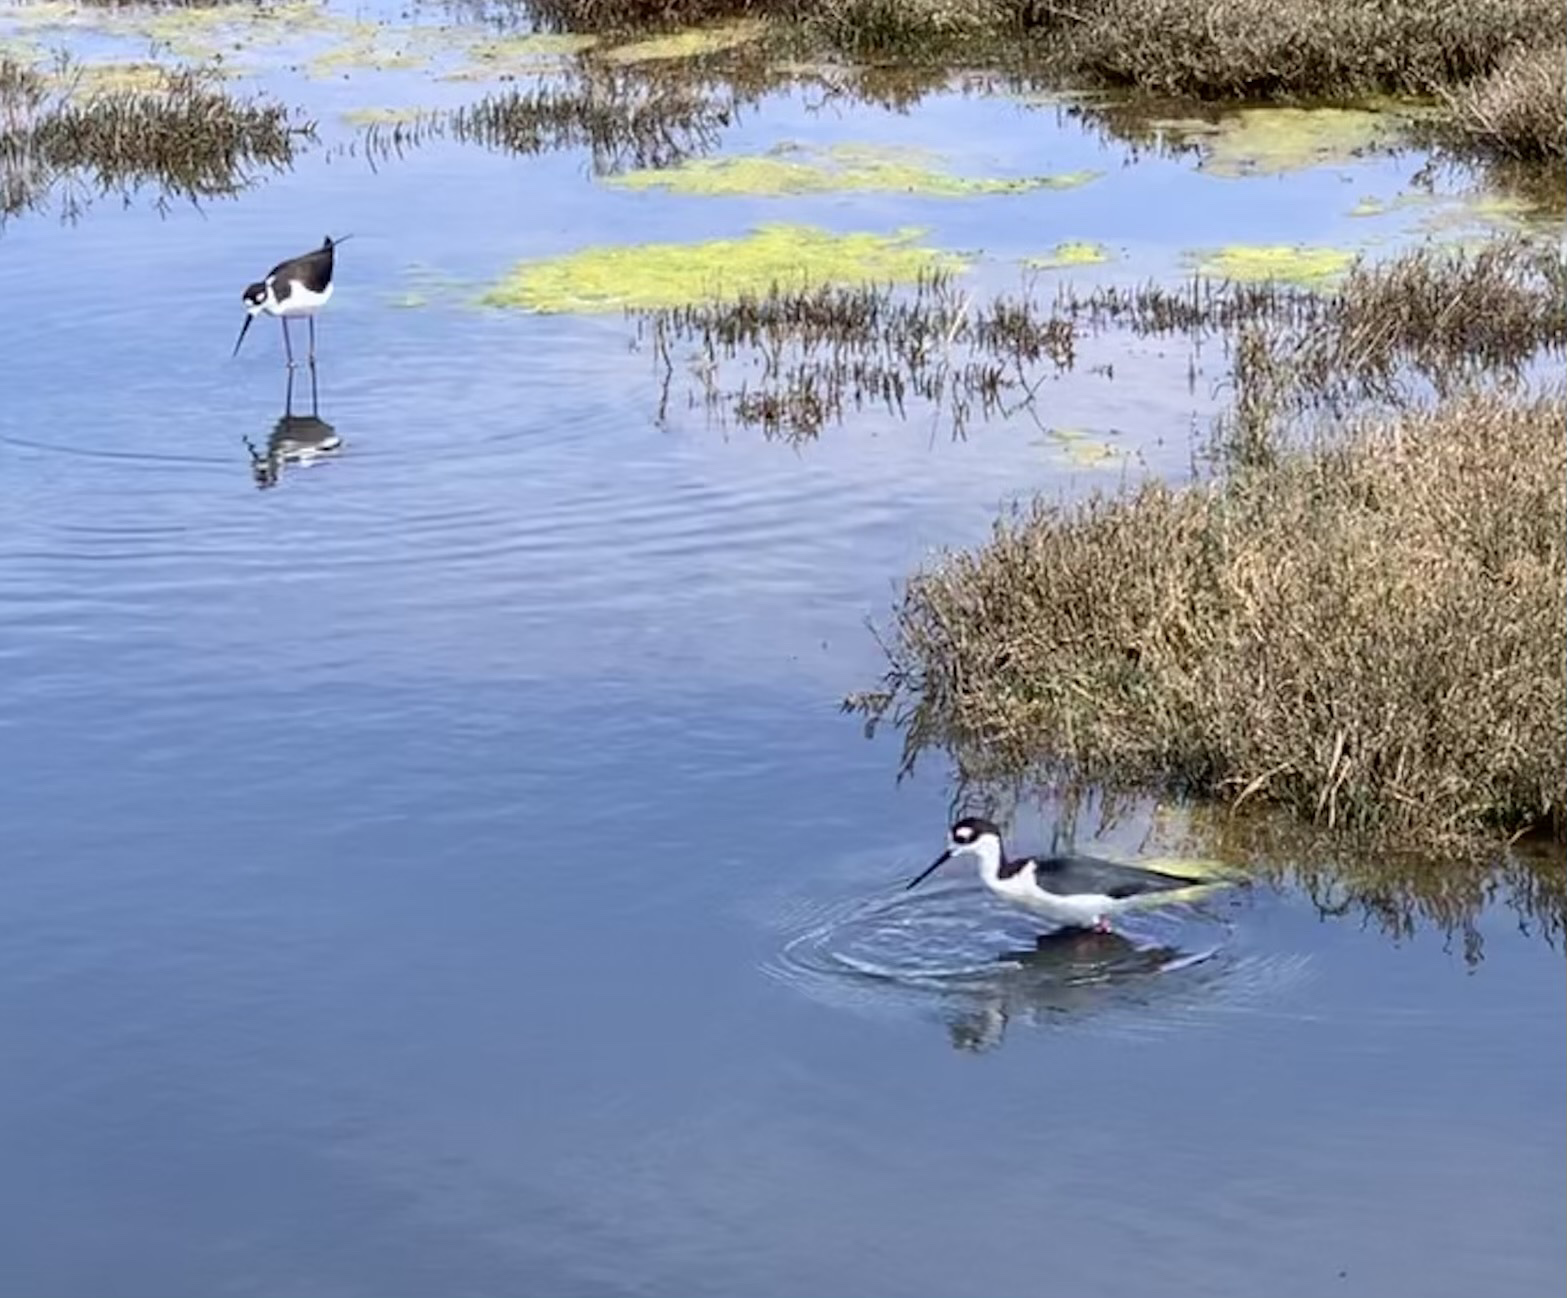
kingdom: Animalia
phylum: Chordata
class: Aves
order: Charadriiformes
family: Recurvirostridae
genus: Himantopus
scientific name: Himantopus mexicanus
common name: Black-necked stilt
